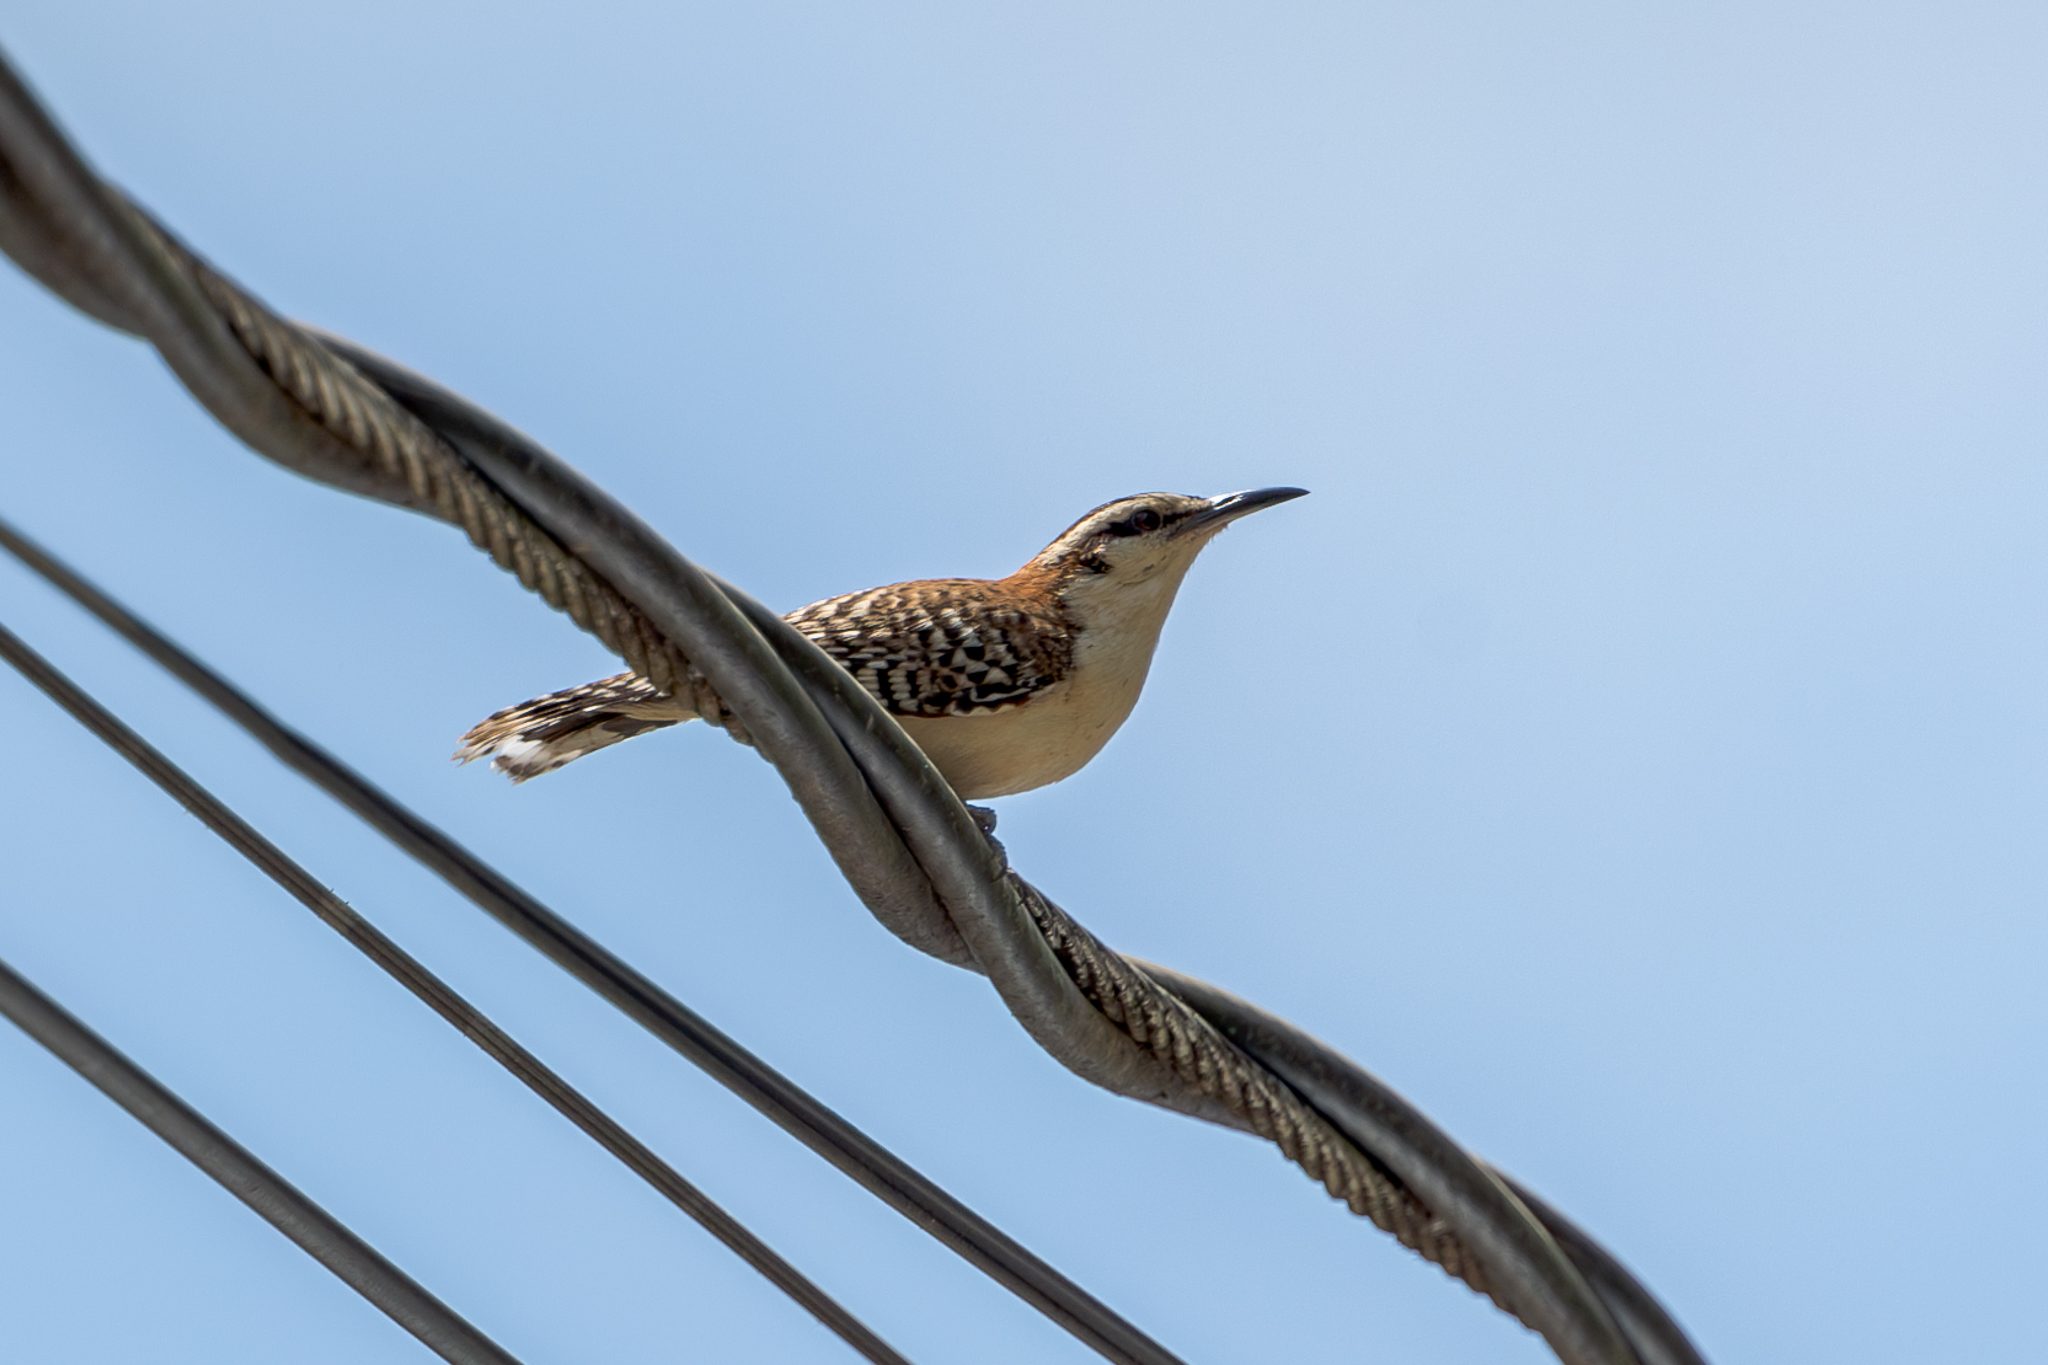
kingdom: Animalia
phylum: Chordata
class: Aves
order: Passeriformes
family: Troglodytidae
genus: Campylorhynchus
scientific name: Campylorhynchus rufinucha
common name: Rufous-naped wren
